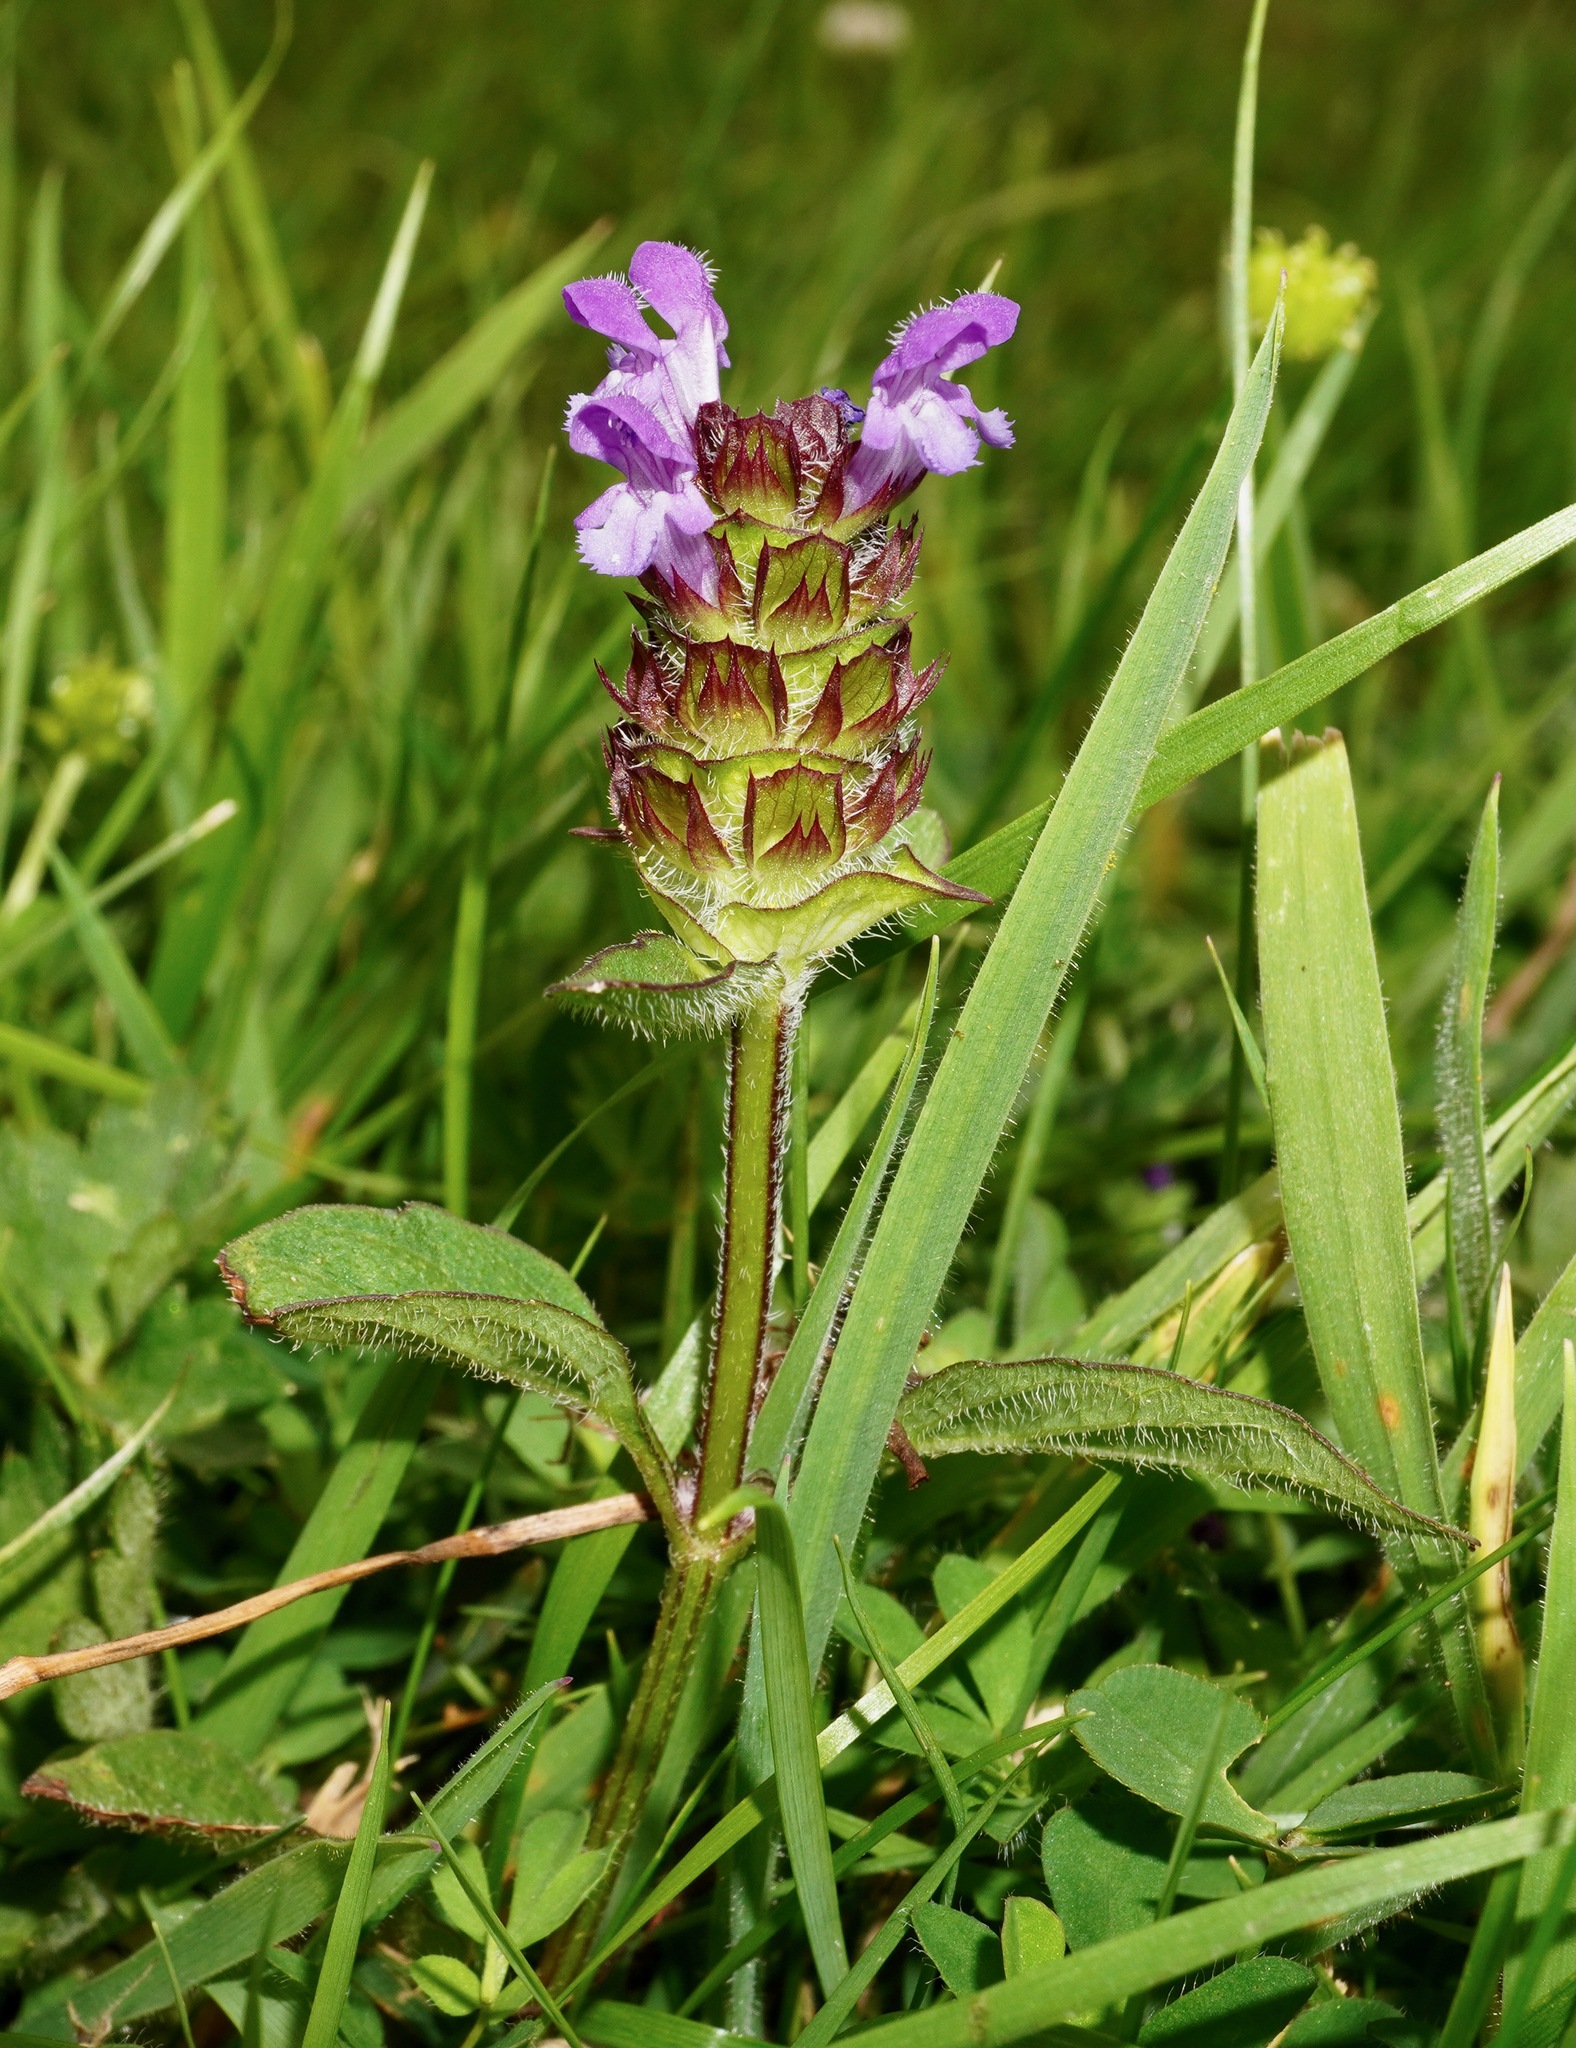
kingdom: Plantae
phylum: Tracheophyta
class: Magnoliopsida
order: Lamiales
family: Lamiaceae
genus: Prunella
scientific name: Prunella vulgaris
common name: Heal-all
